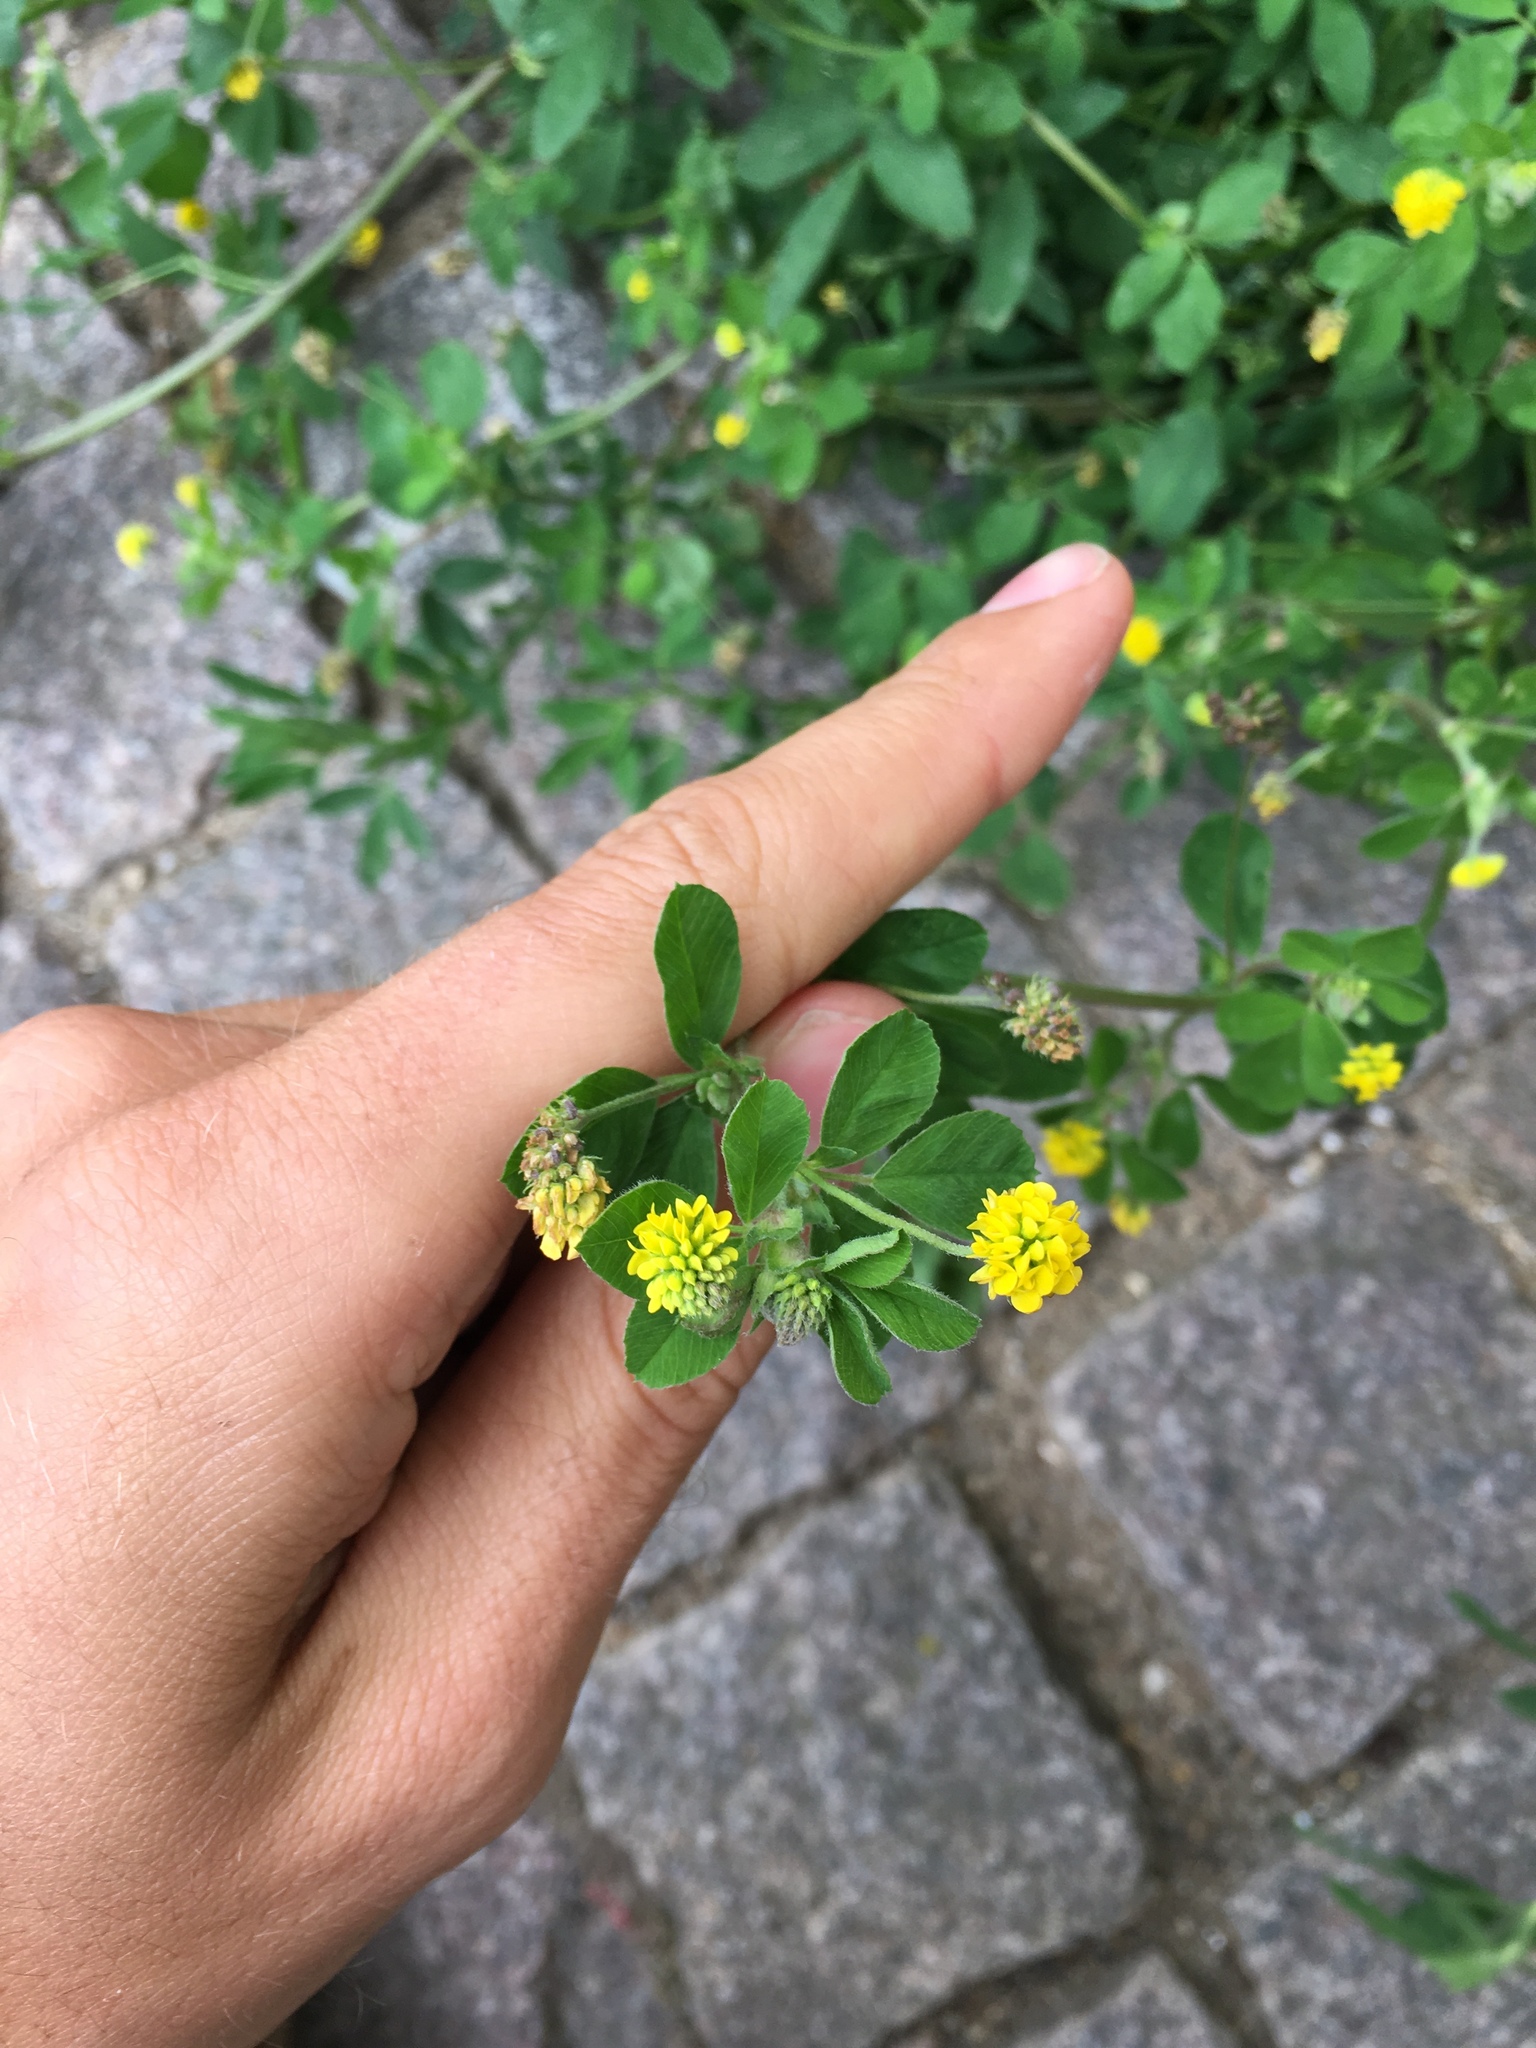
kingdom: Plantae
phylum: Tracheophyta
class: Magnoliopsida
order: Fabales
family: Fabaceae
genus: Medicago
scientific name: Medicago lupulina
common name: Black medick
